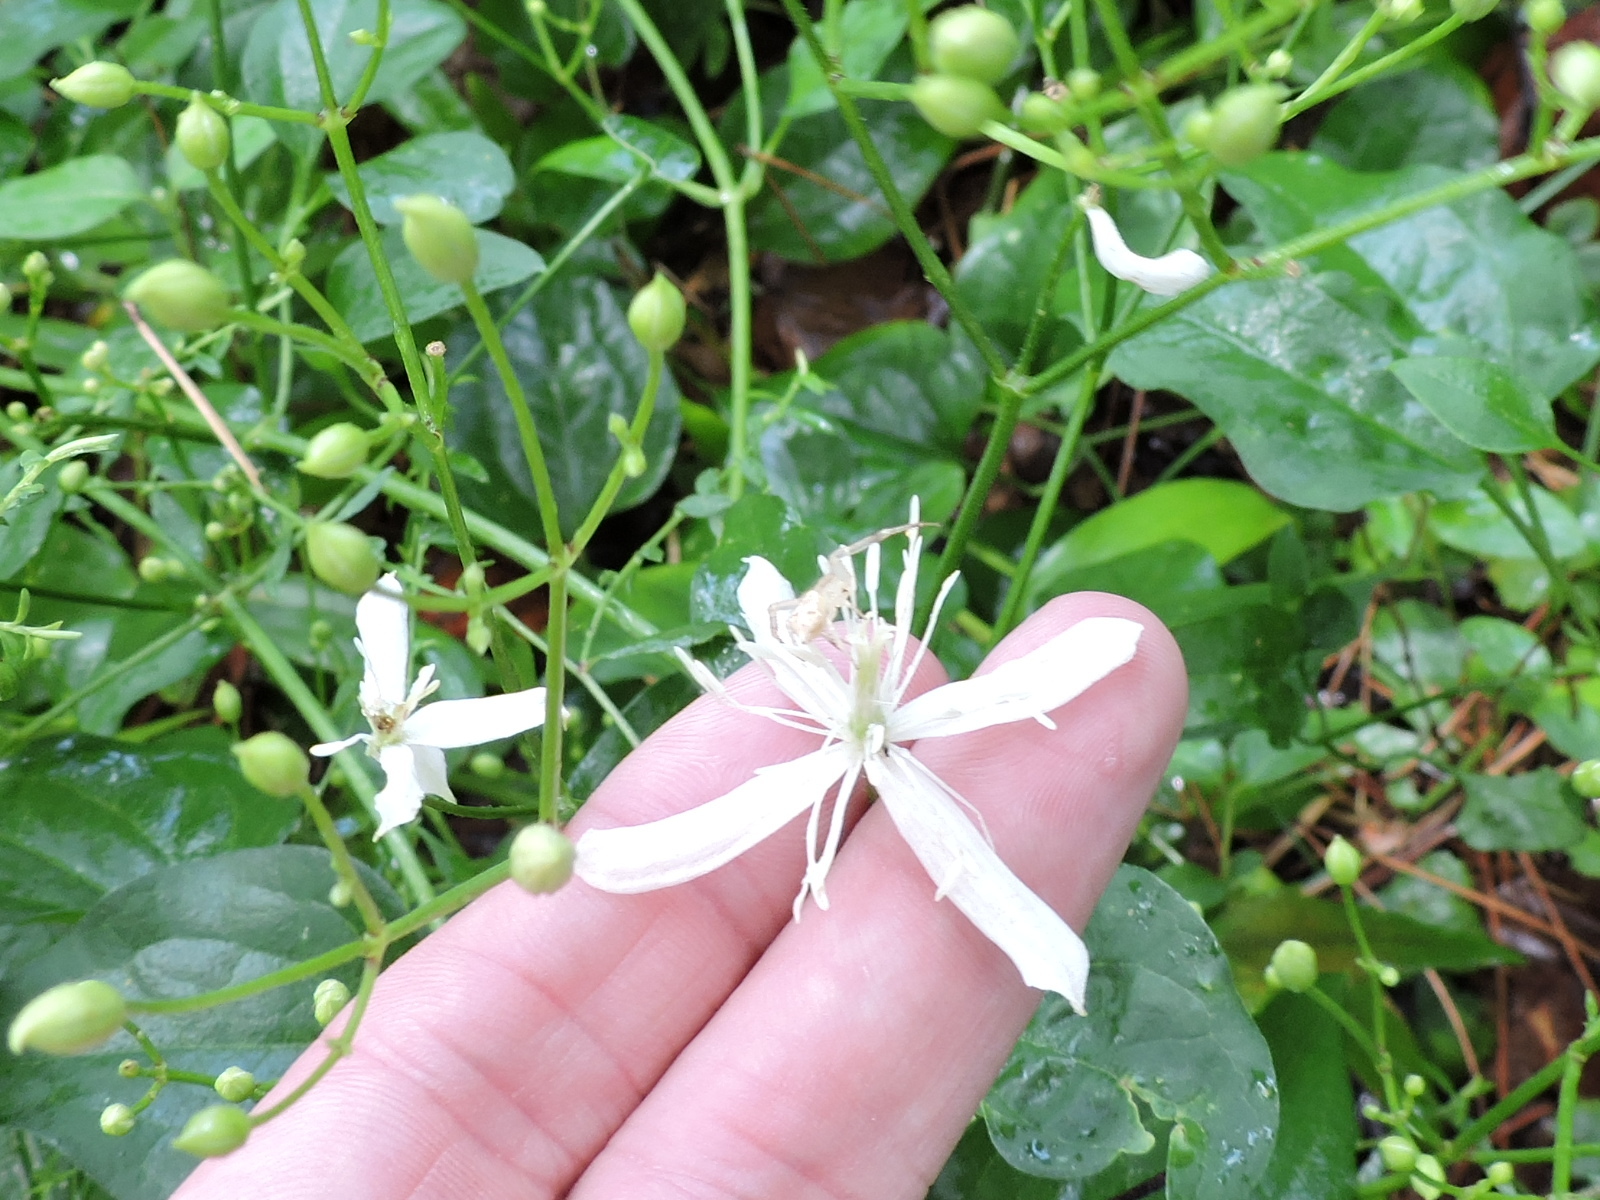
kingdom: Plantae
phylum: Tracheophyta
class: Magnoliopsida
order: Ranunculales
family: Ranunculaceae
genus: Clematis
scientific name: Clematis terniflora
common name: Sweet autumn clematis
